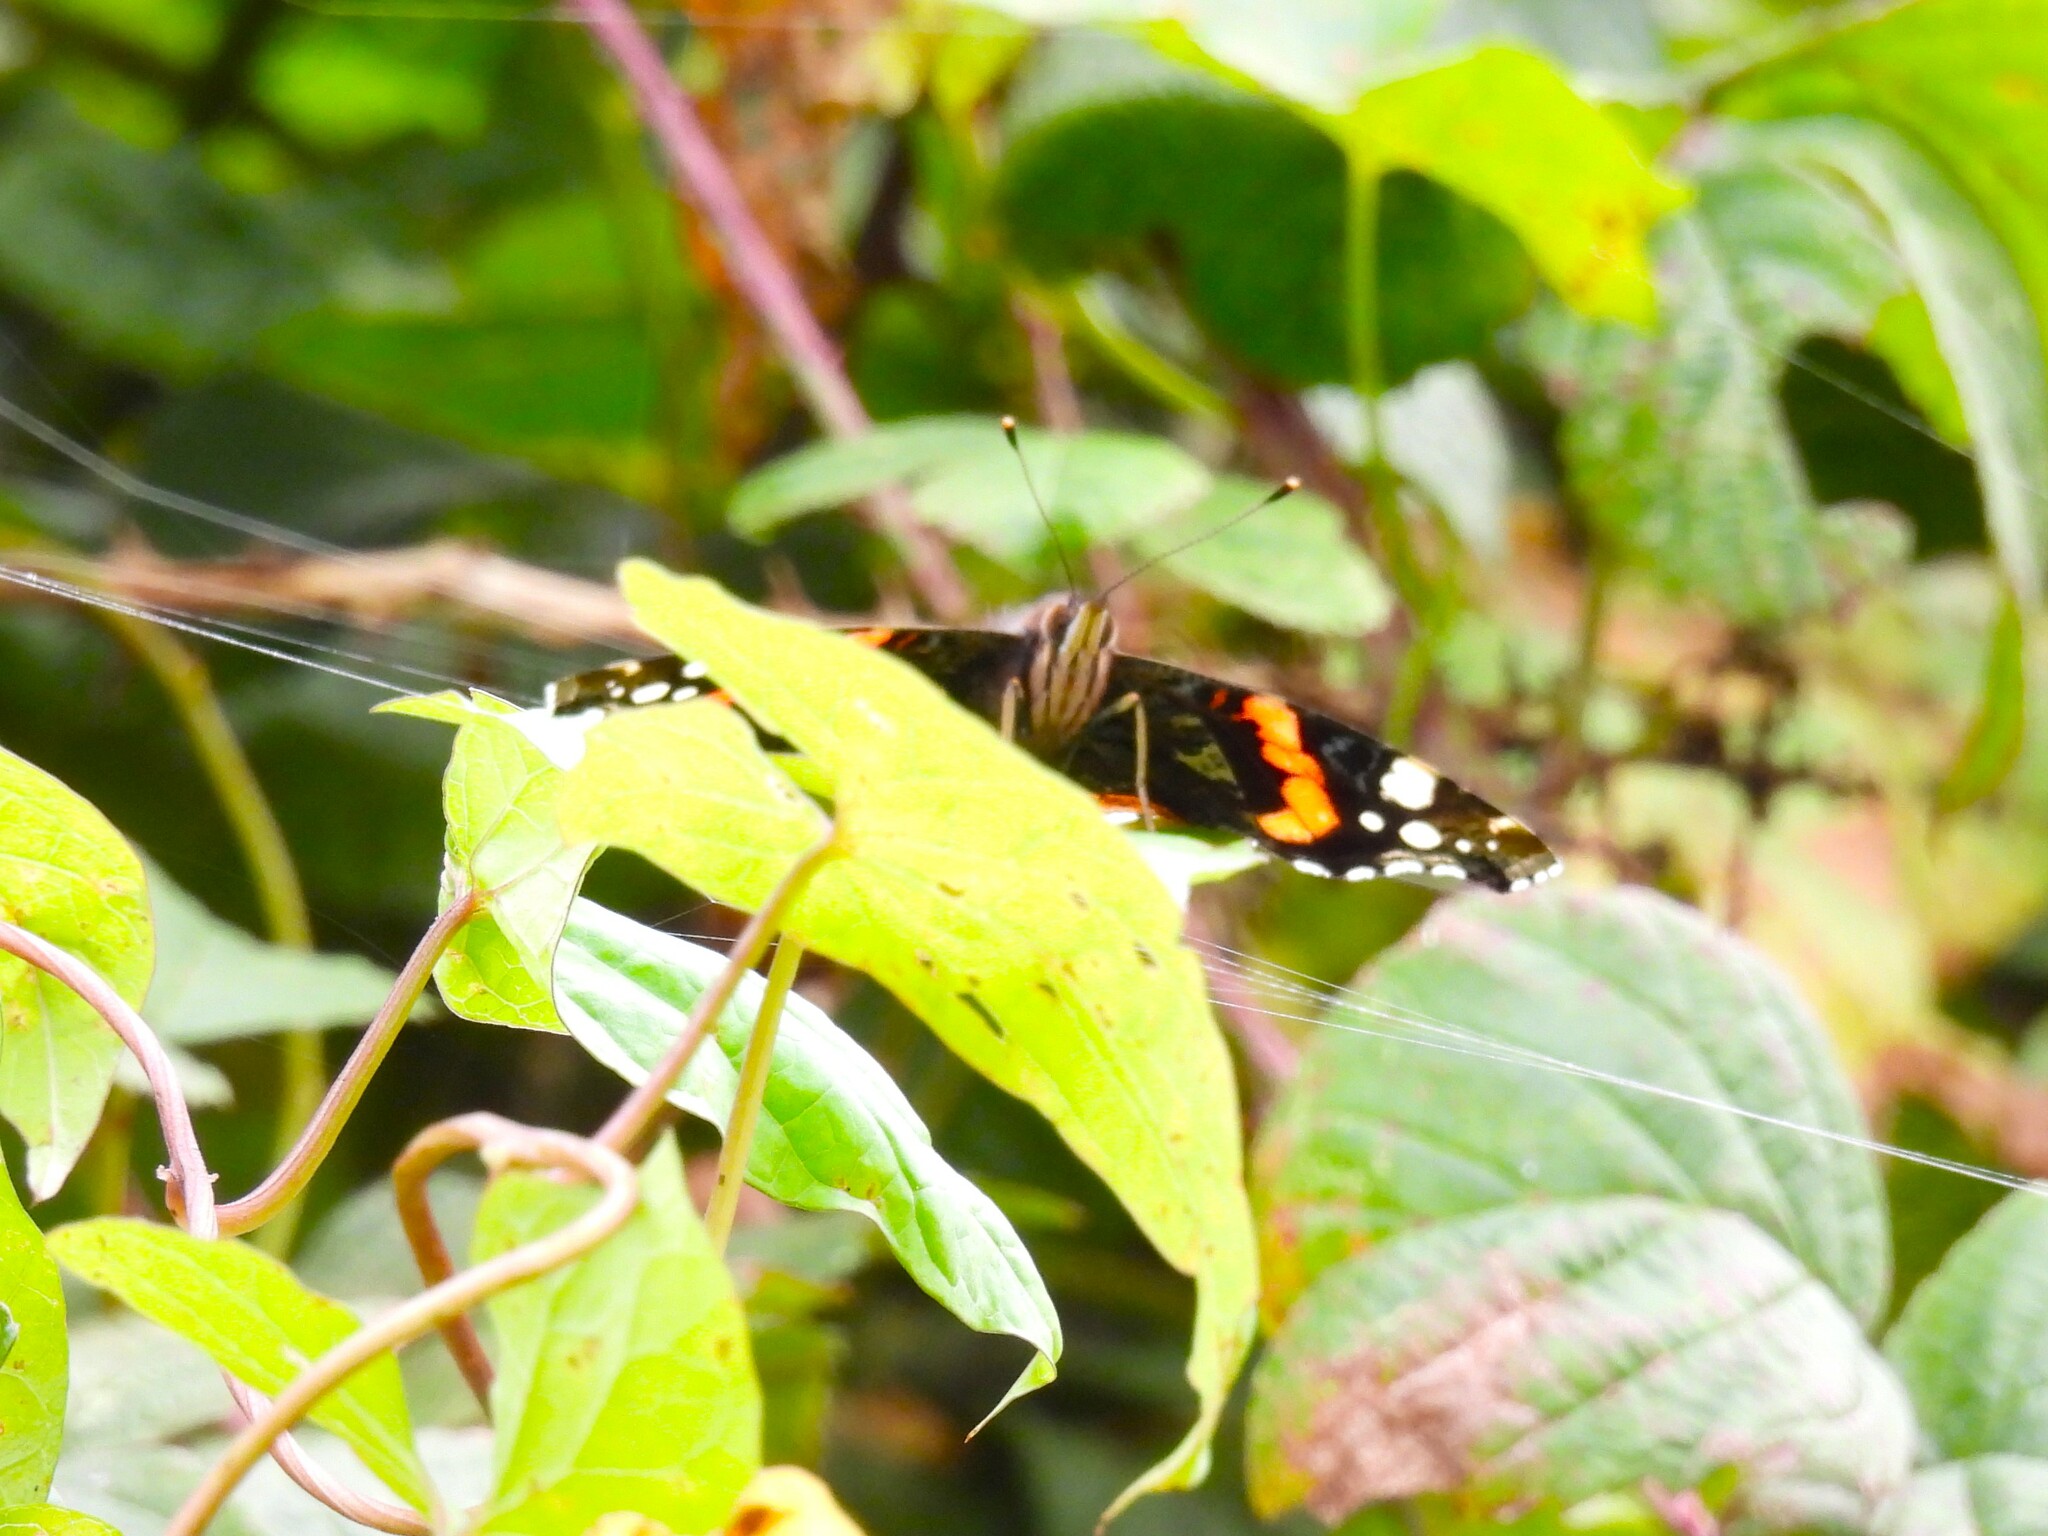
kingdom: Animalia
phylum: Arthropoda
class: Insecta
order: Lepidoptera
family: Nymphalidae
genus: Vanessa
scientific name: Vanessa atalanta
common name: Red admiral
